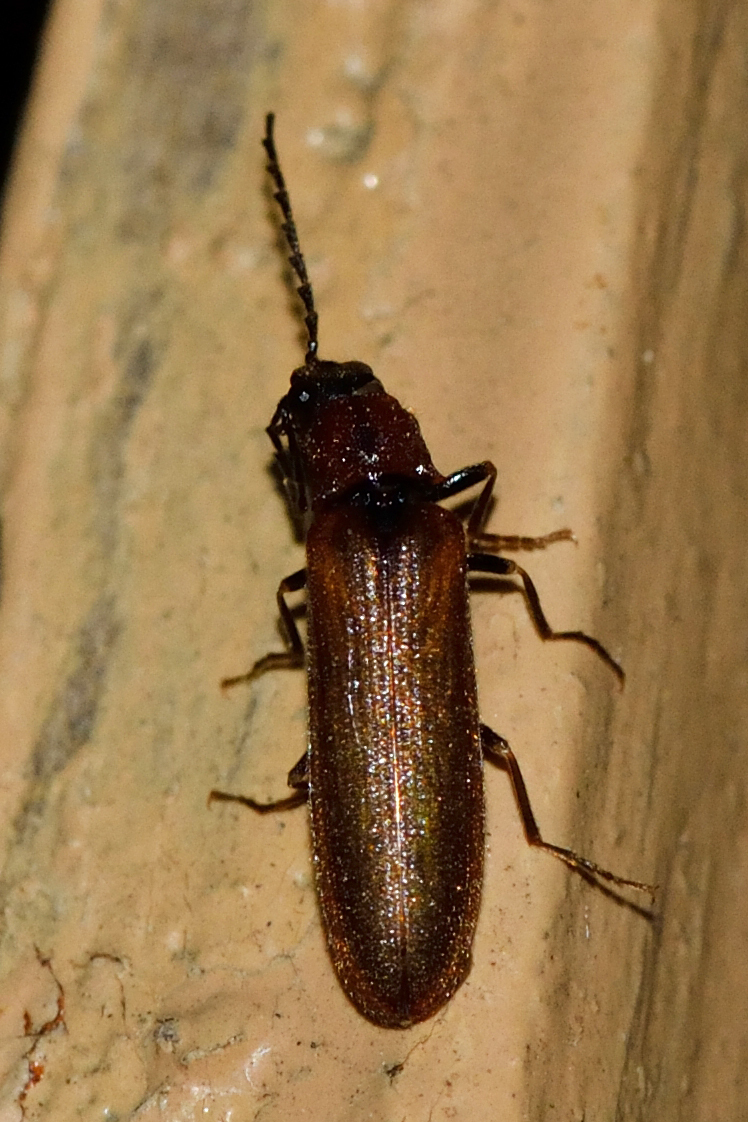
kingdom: Animalia
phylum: Arthropoda
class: Insecta
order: Coleoptera
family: Elateridae
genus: Denticollis
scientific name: Denticollis linearis
